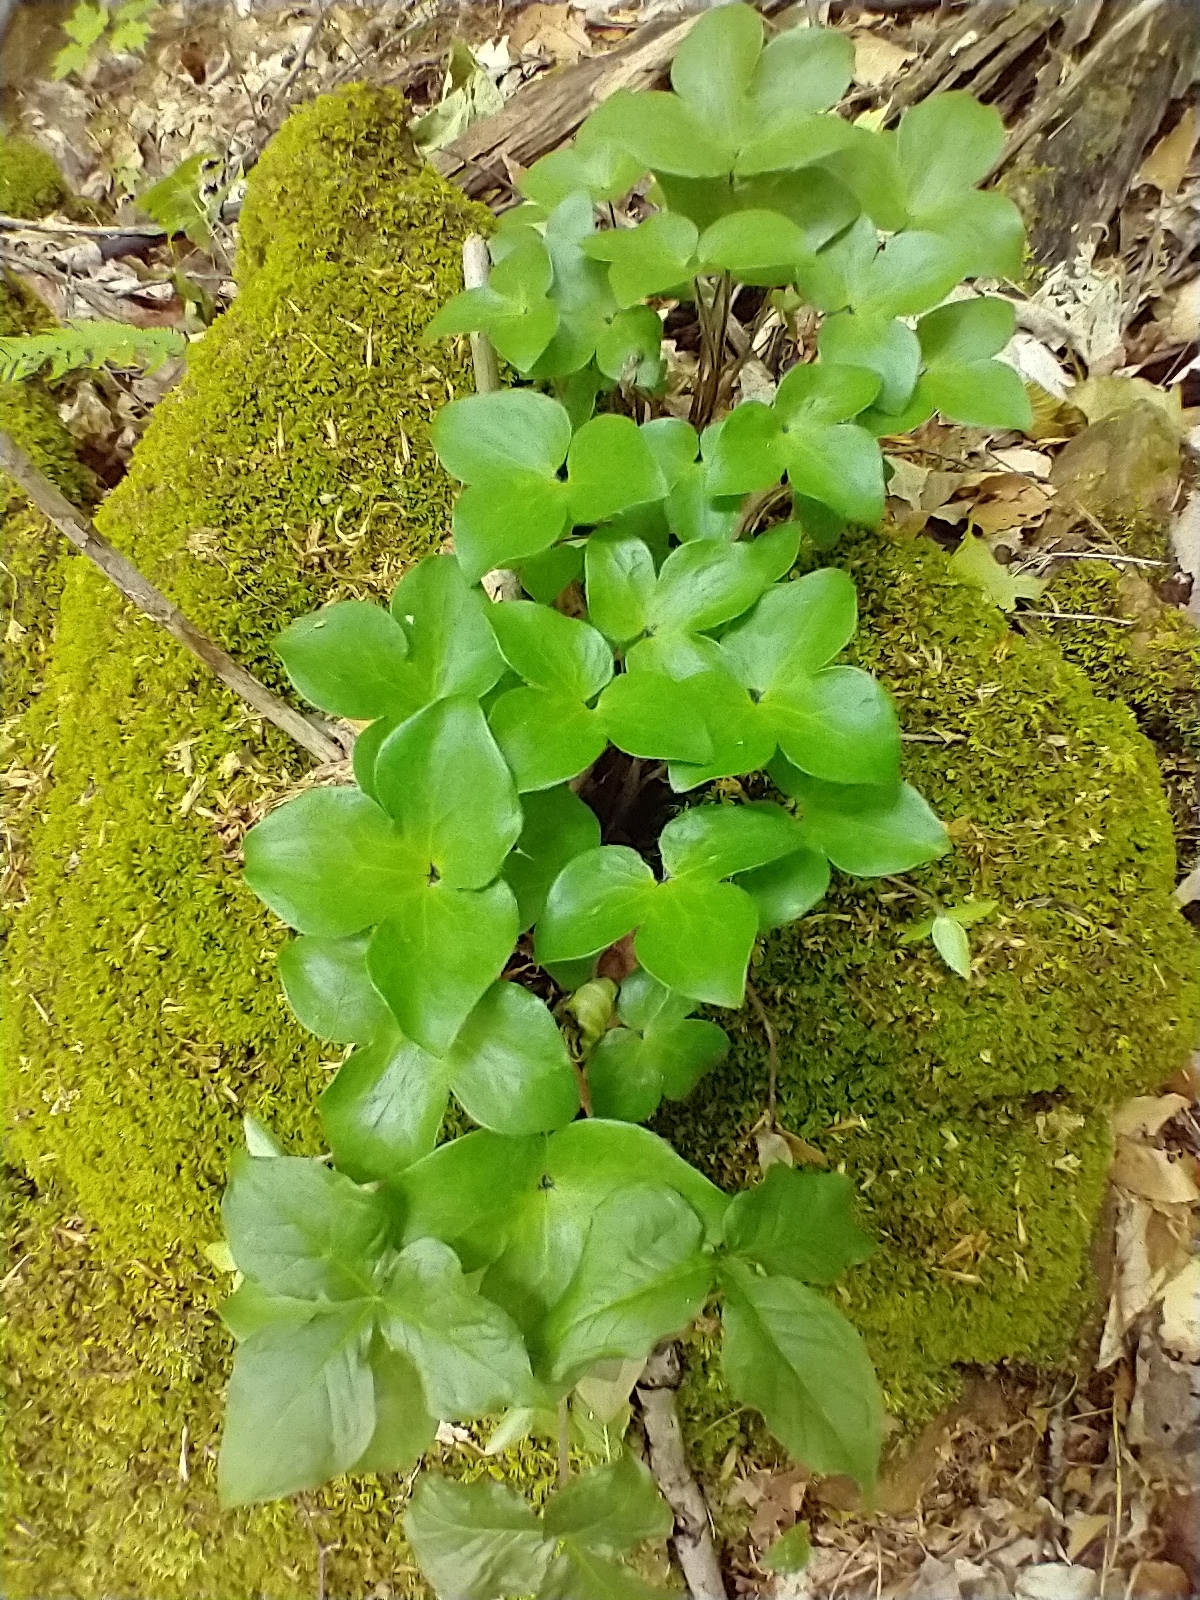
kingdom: Plantae
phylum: Tracheophyta
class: Magnoliopsida
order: Ranunculales
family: Ranunculaceae
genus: Hepatica
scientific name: Hepatica acutiloba
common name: Sharp-lobed hepatica
